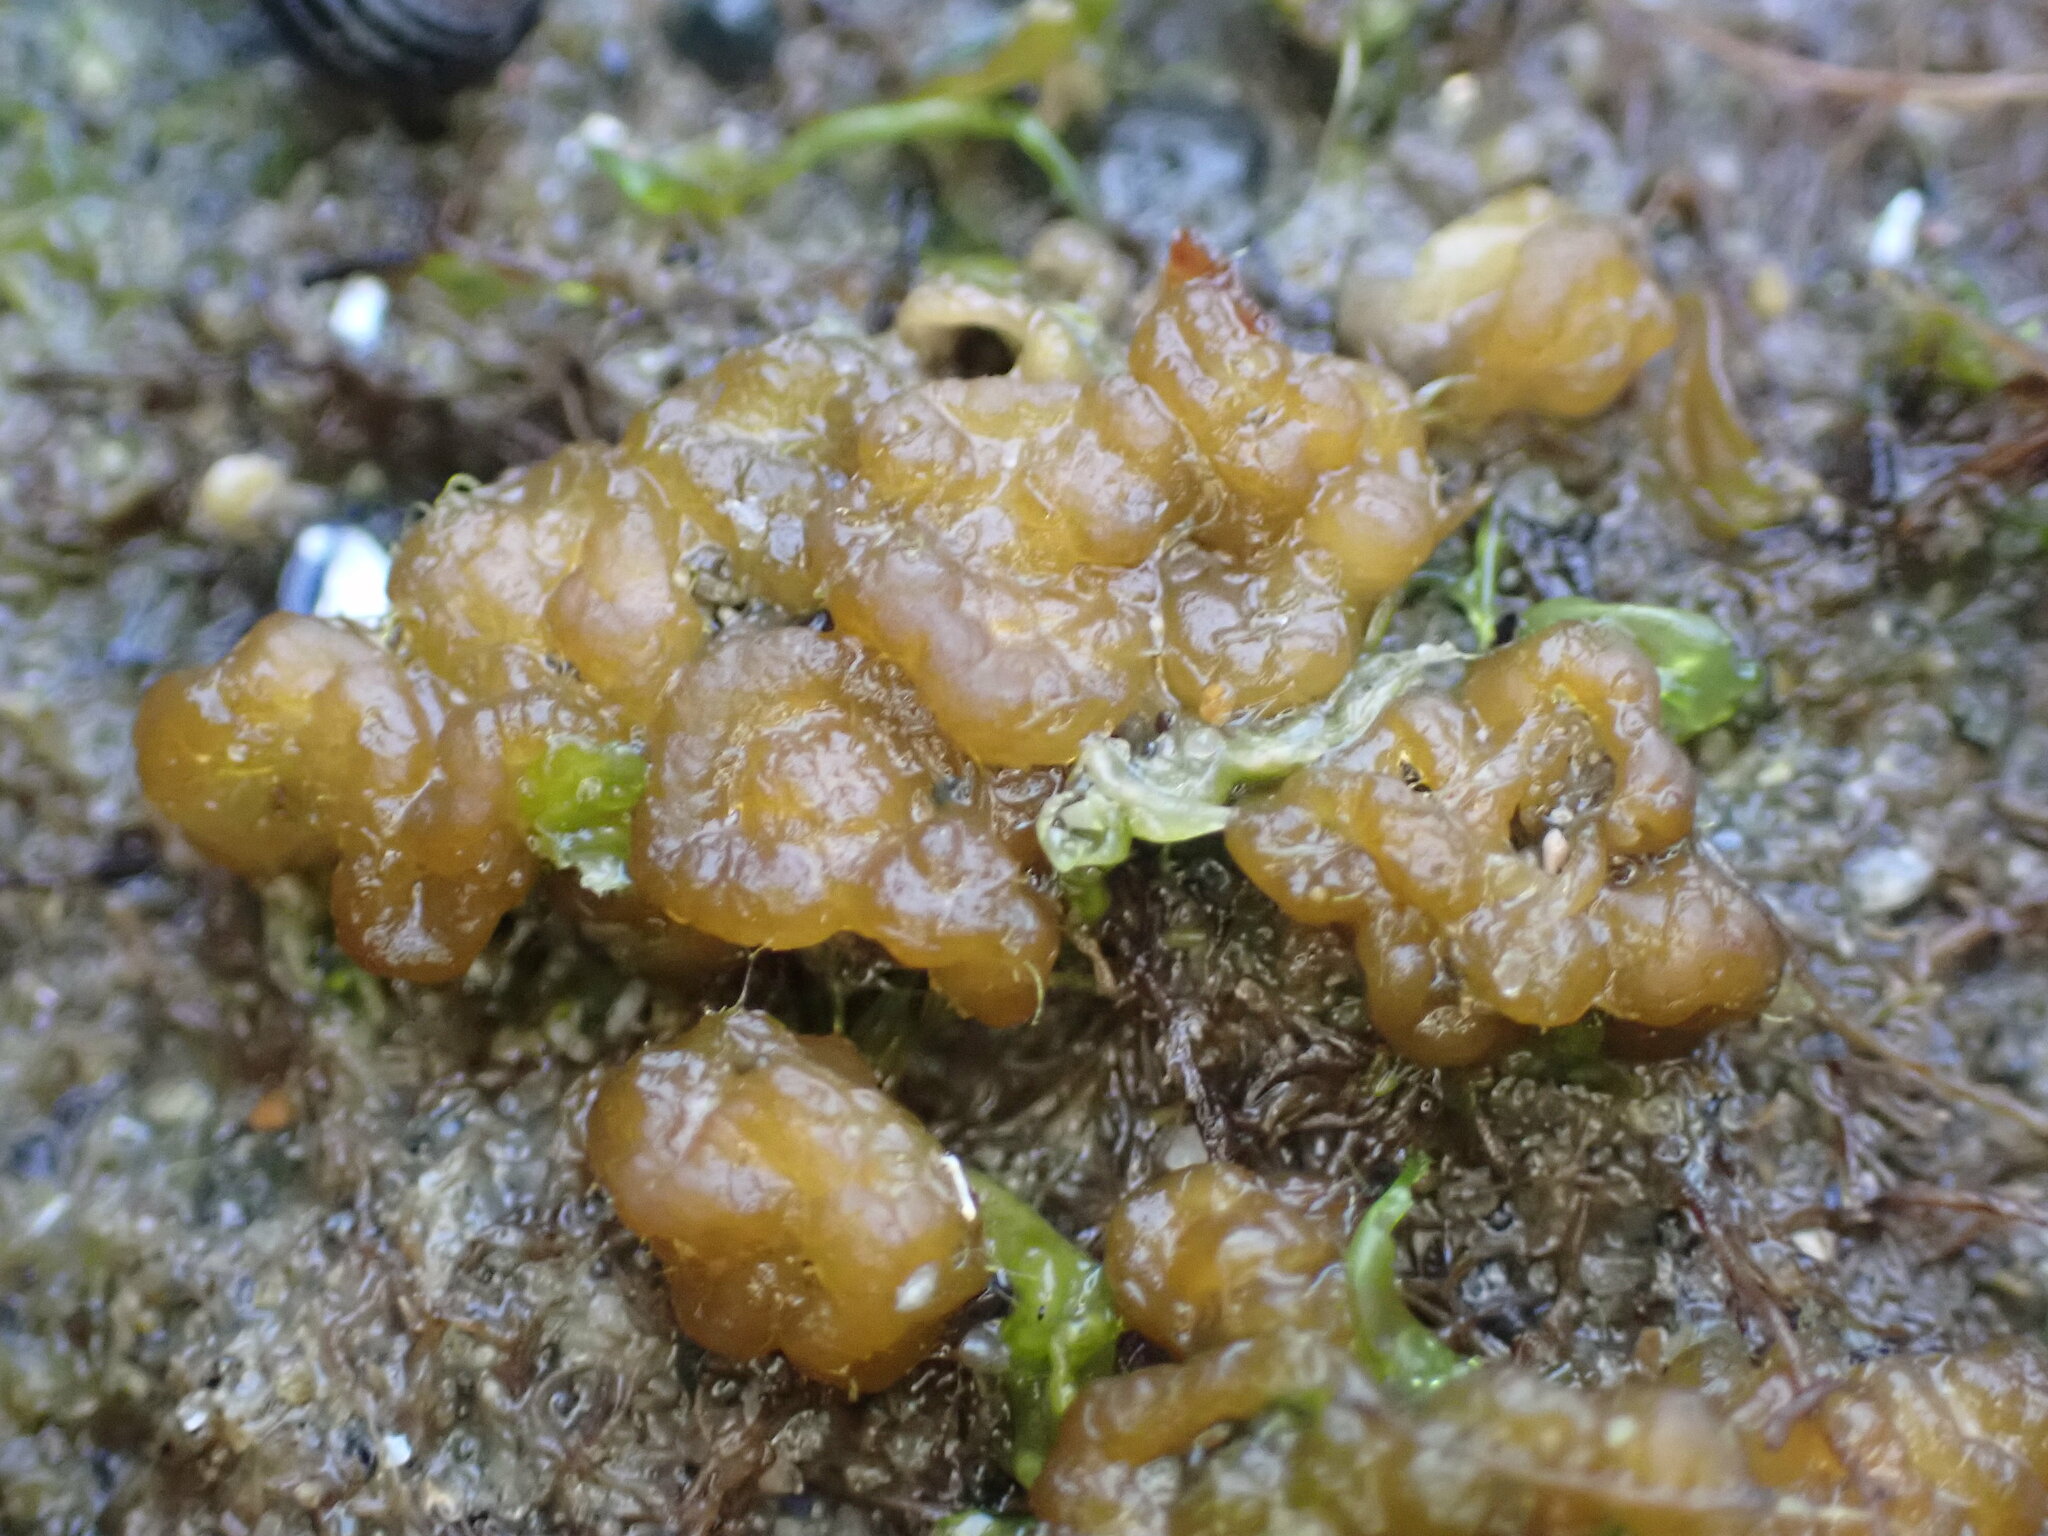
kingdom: Chromista
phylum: Ochrophyta
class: Phaeophyceae
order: Ectocarpales
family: Chordariaceae
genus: Leathesia
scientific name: Leathesia marina
